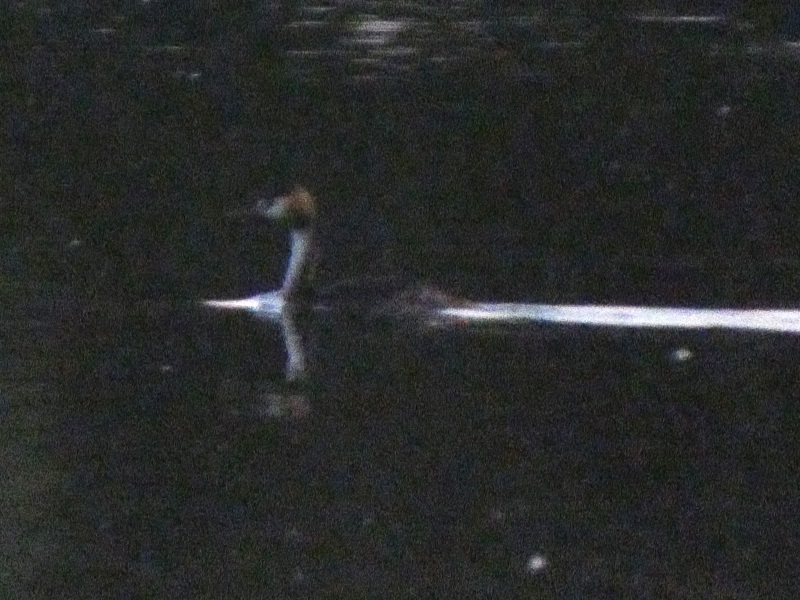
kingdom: Animalia
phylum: Chordata
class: Aves
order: Podicipediformes
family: Podicipedidae
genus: Podiceps
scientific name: Podiceps cristatus
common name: Great crested grebe
